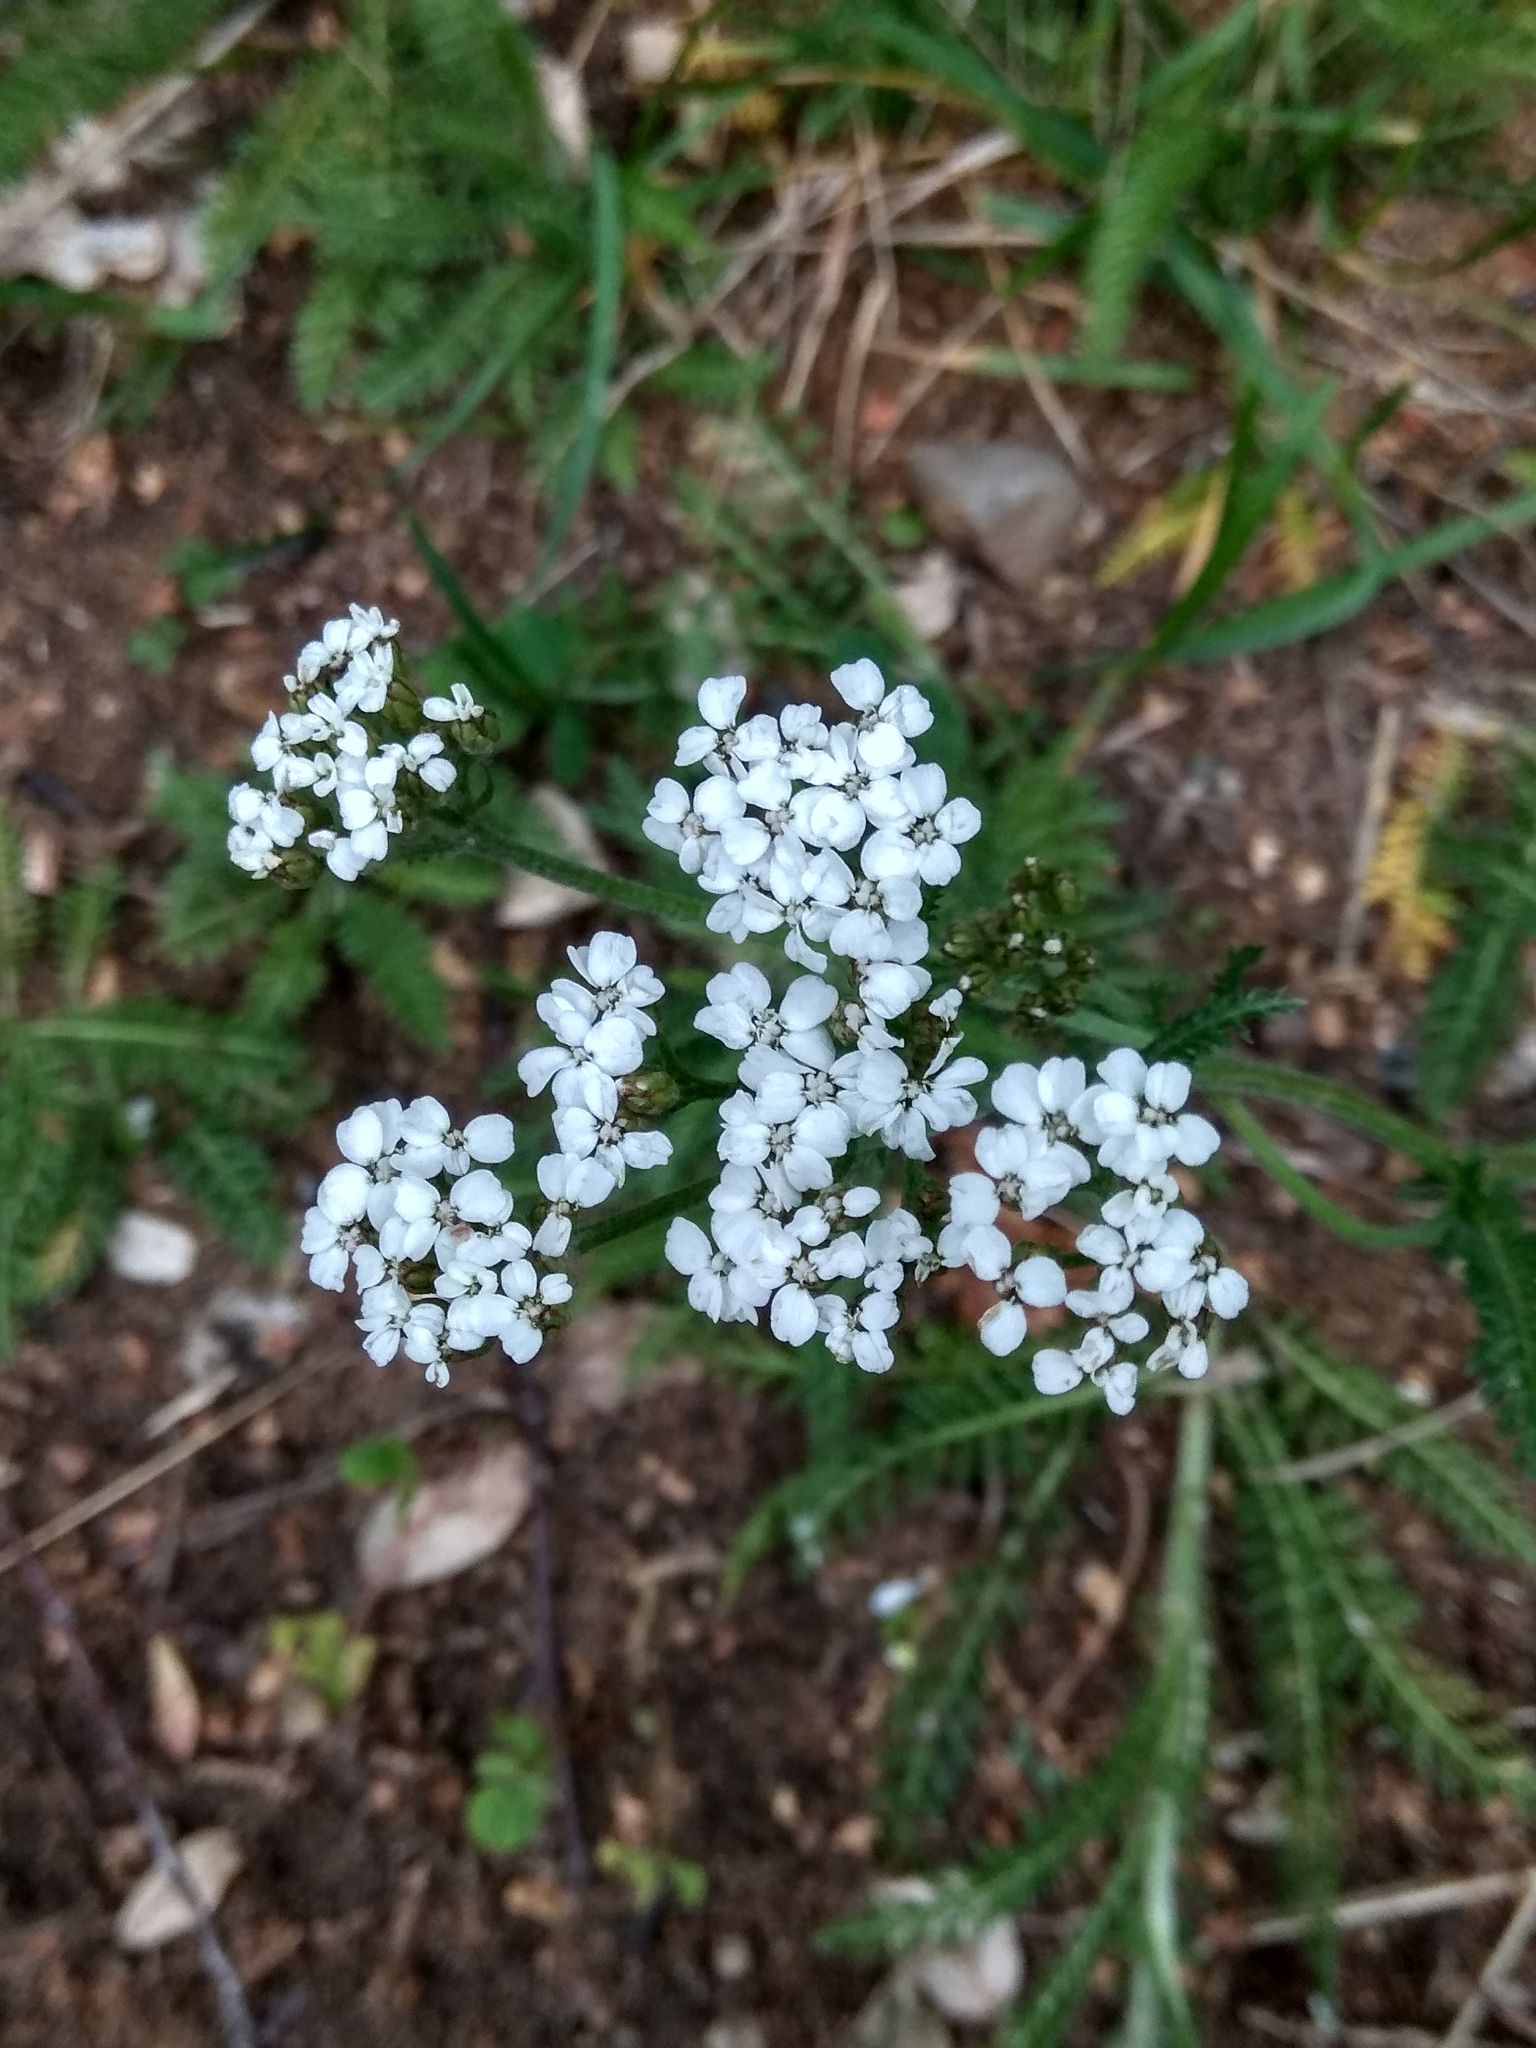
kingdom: Plantae
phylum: Tracheophyta
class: Magnoliopsida
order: Asterales
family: Asteraceae
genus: Achillea
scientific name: Achillea millefolium
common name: Yarrow
